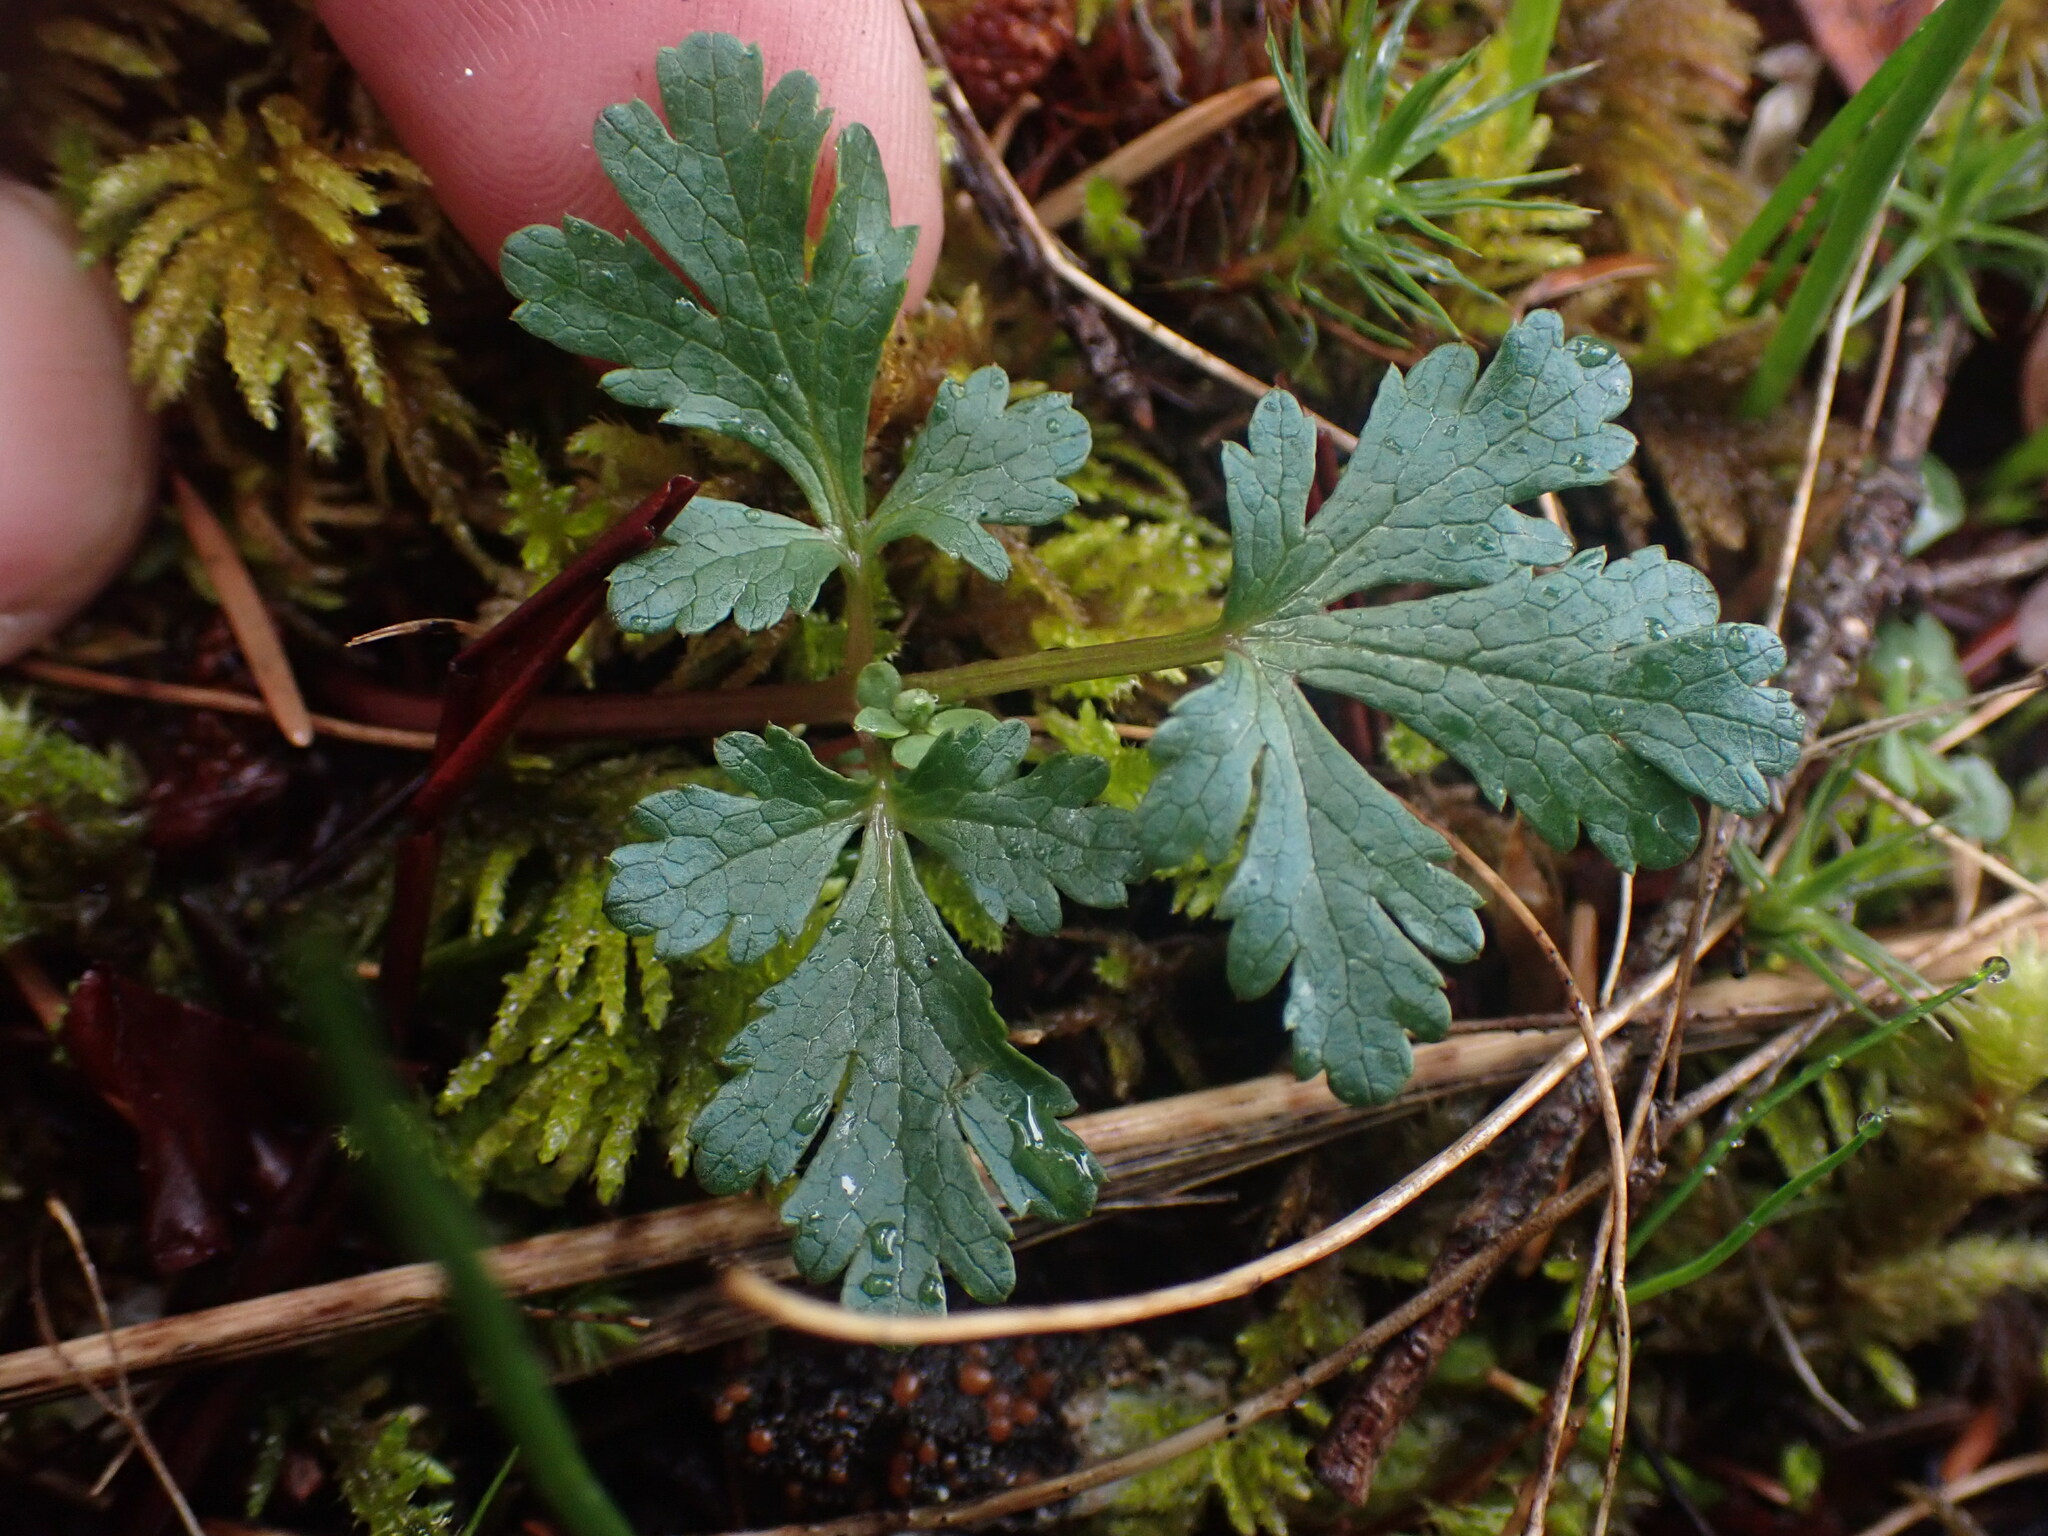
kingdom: Plantae
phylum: Tracheophyta
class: Magnoliopsida
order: Apiales
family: Apiaceae
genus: Sanicula
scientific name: Sanicula graveolens
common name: Sierra sanicle
